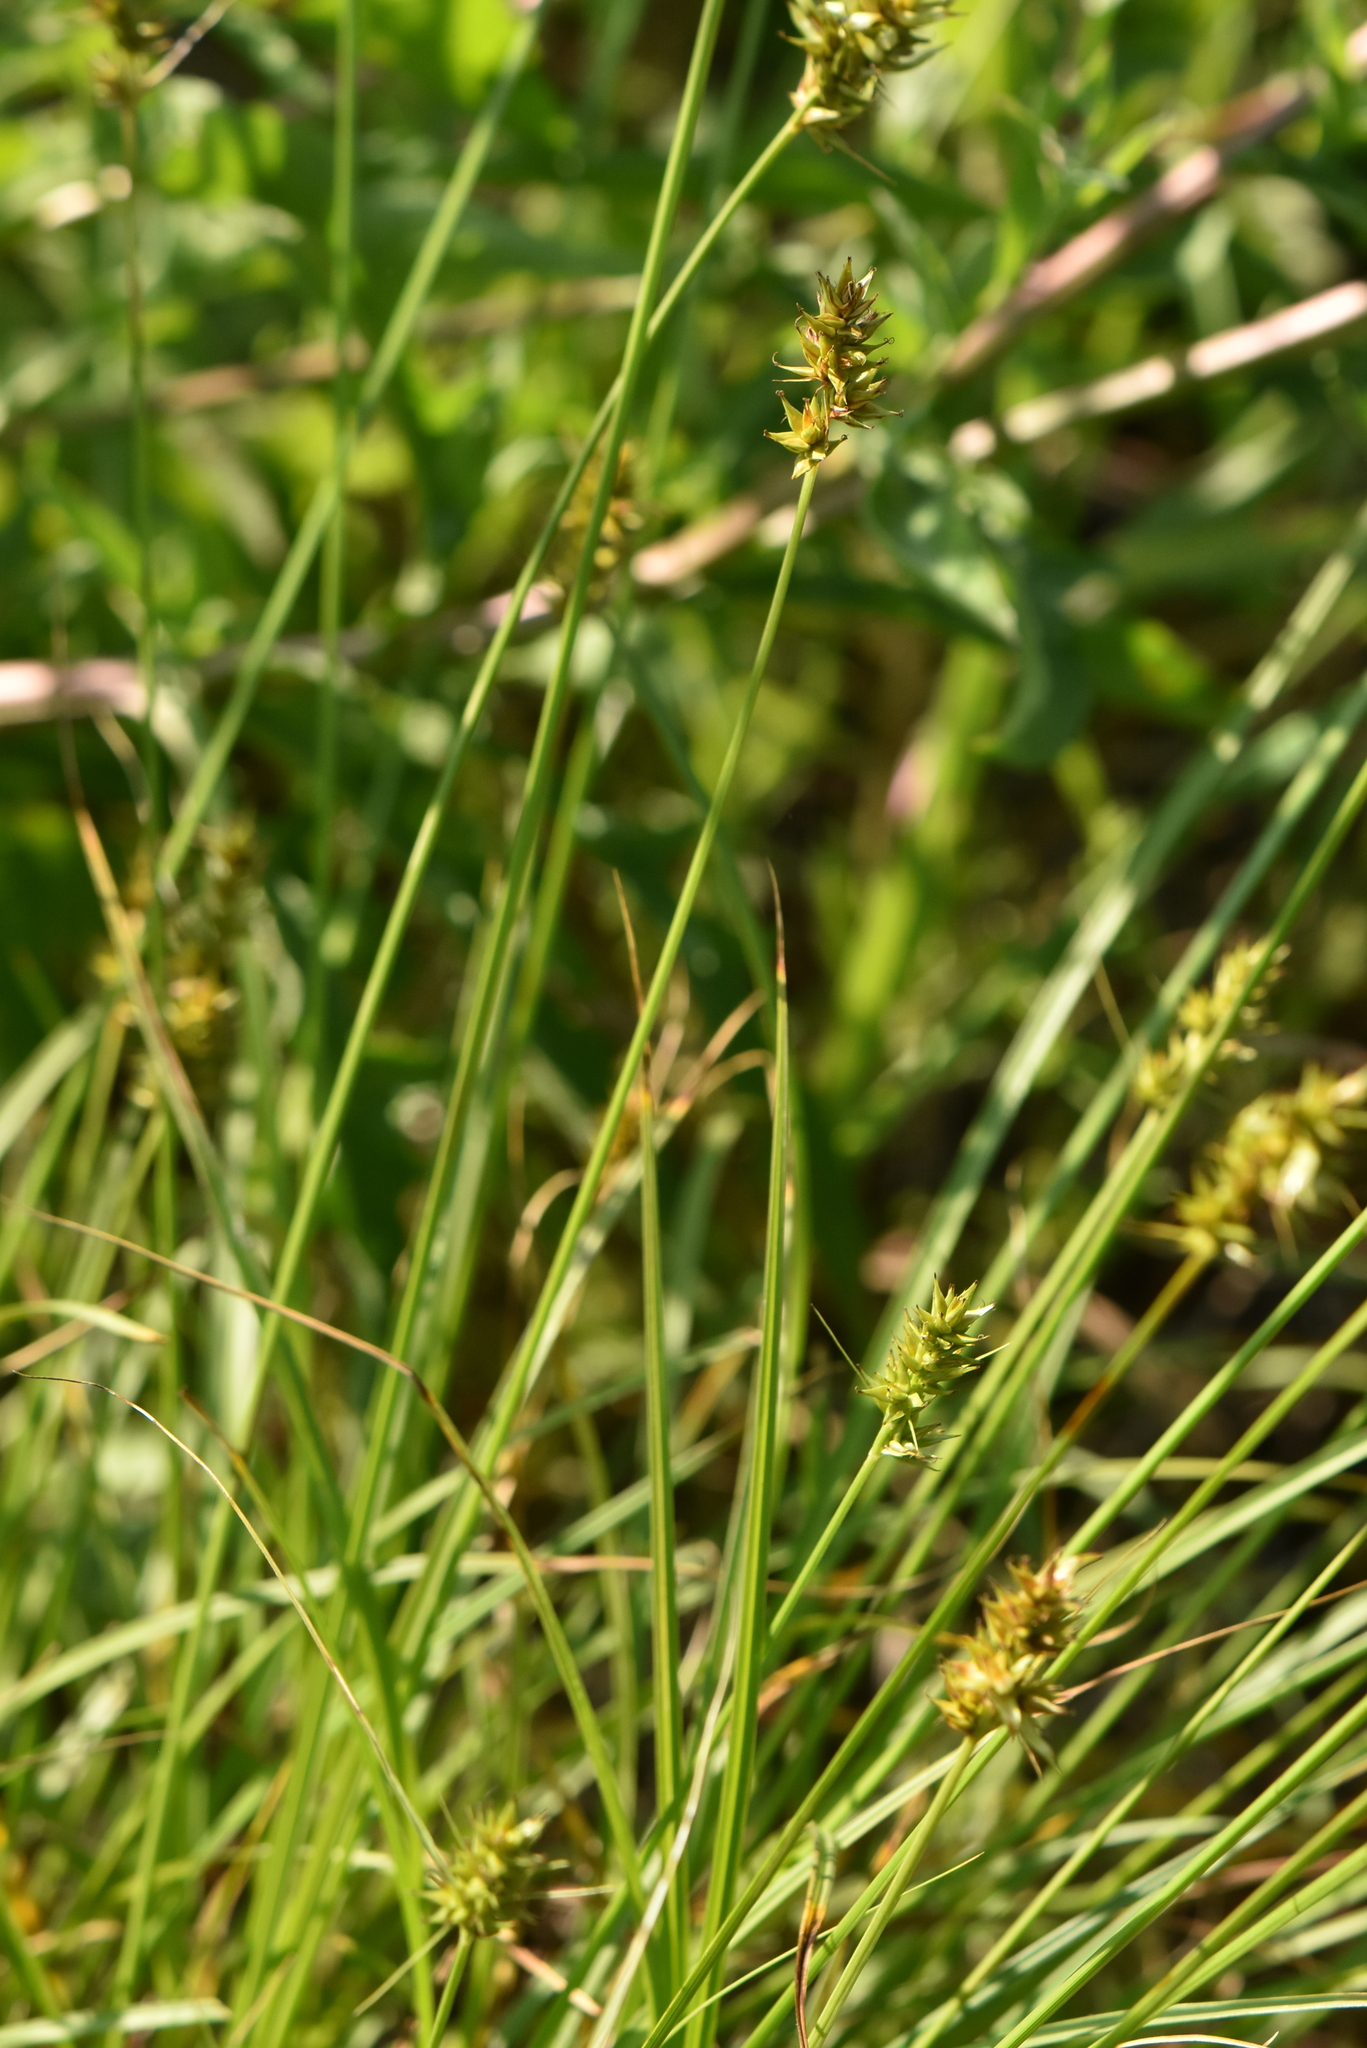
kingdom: Plantae
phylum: Tracheophyta
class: Liliopsida
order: Poales
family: Cyperaceae
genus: Carex
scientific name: Carex spicata
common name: Spiked sedge
